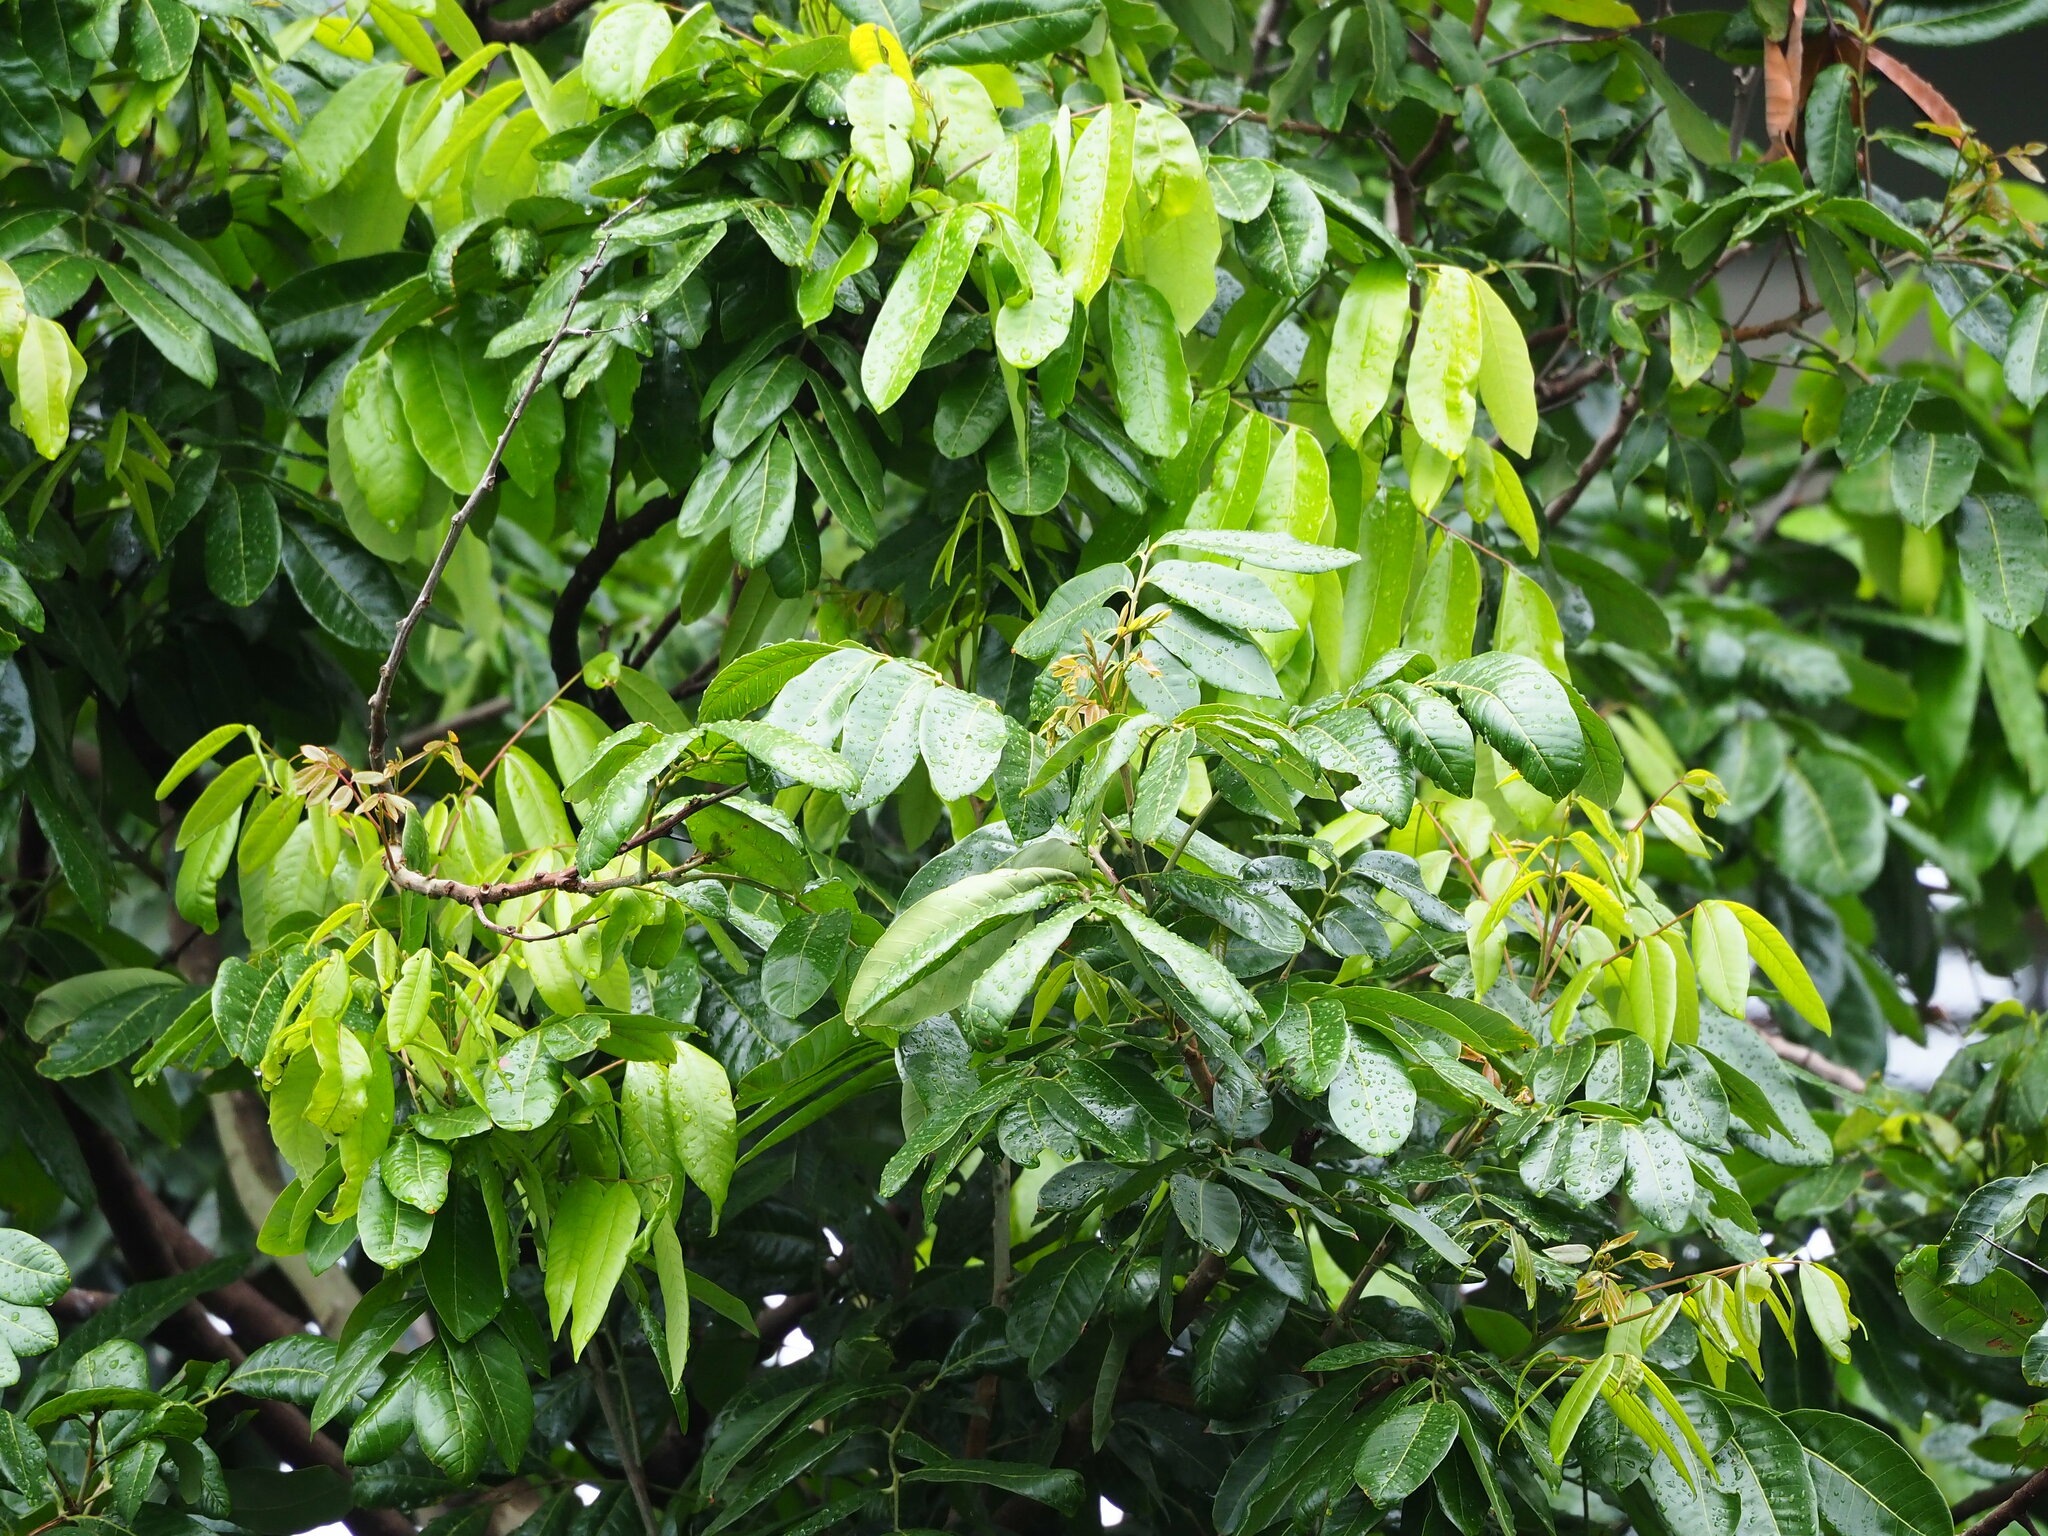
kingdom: Plantae
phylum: Tracheophyta
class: Magnoliopsida
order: Sapindales
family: Sapindaceae
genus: Dimocarpus
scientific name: Dimocarpus longan
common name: Longan
